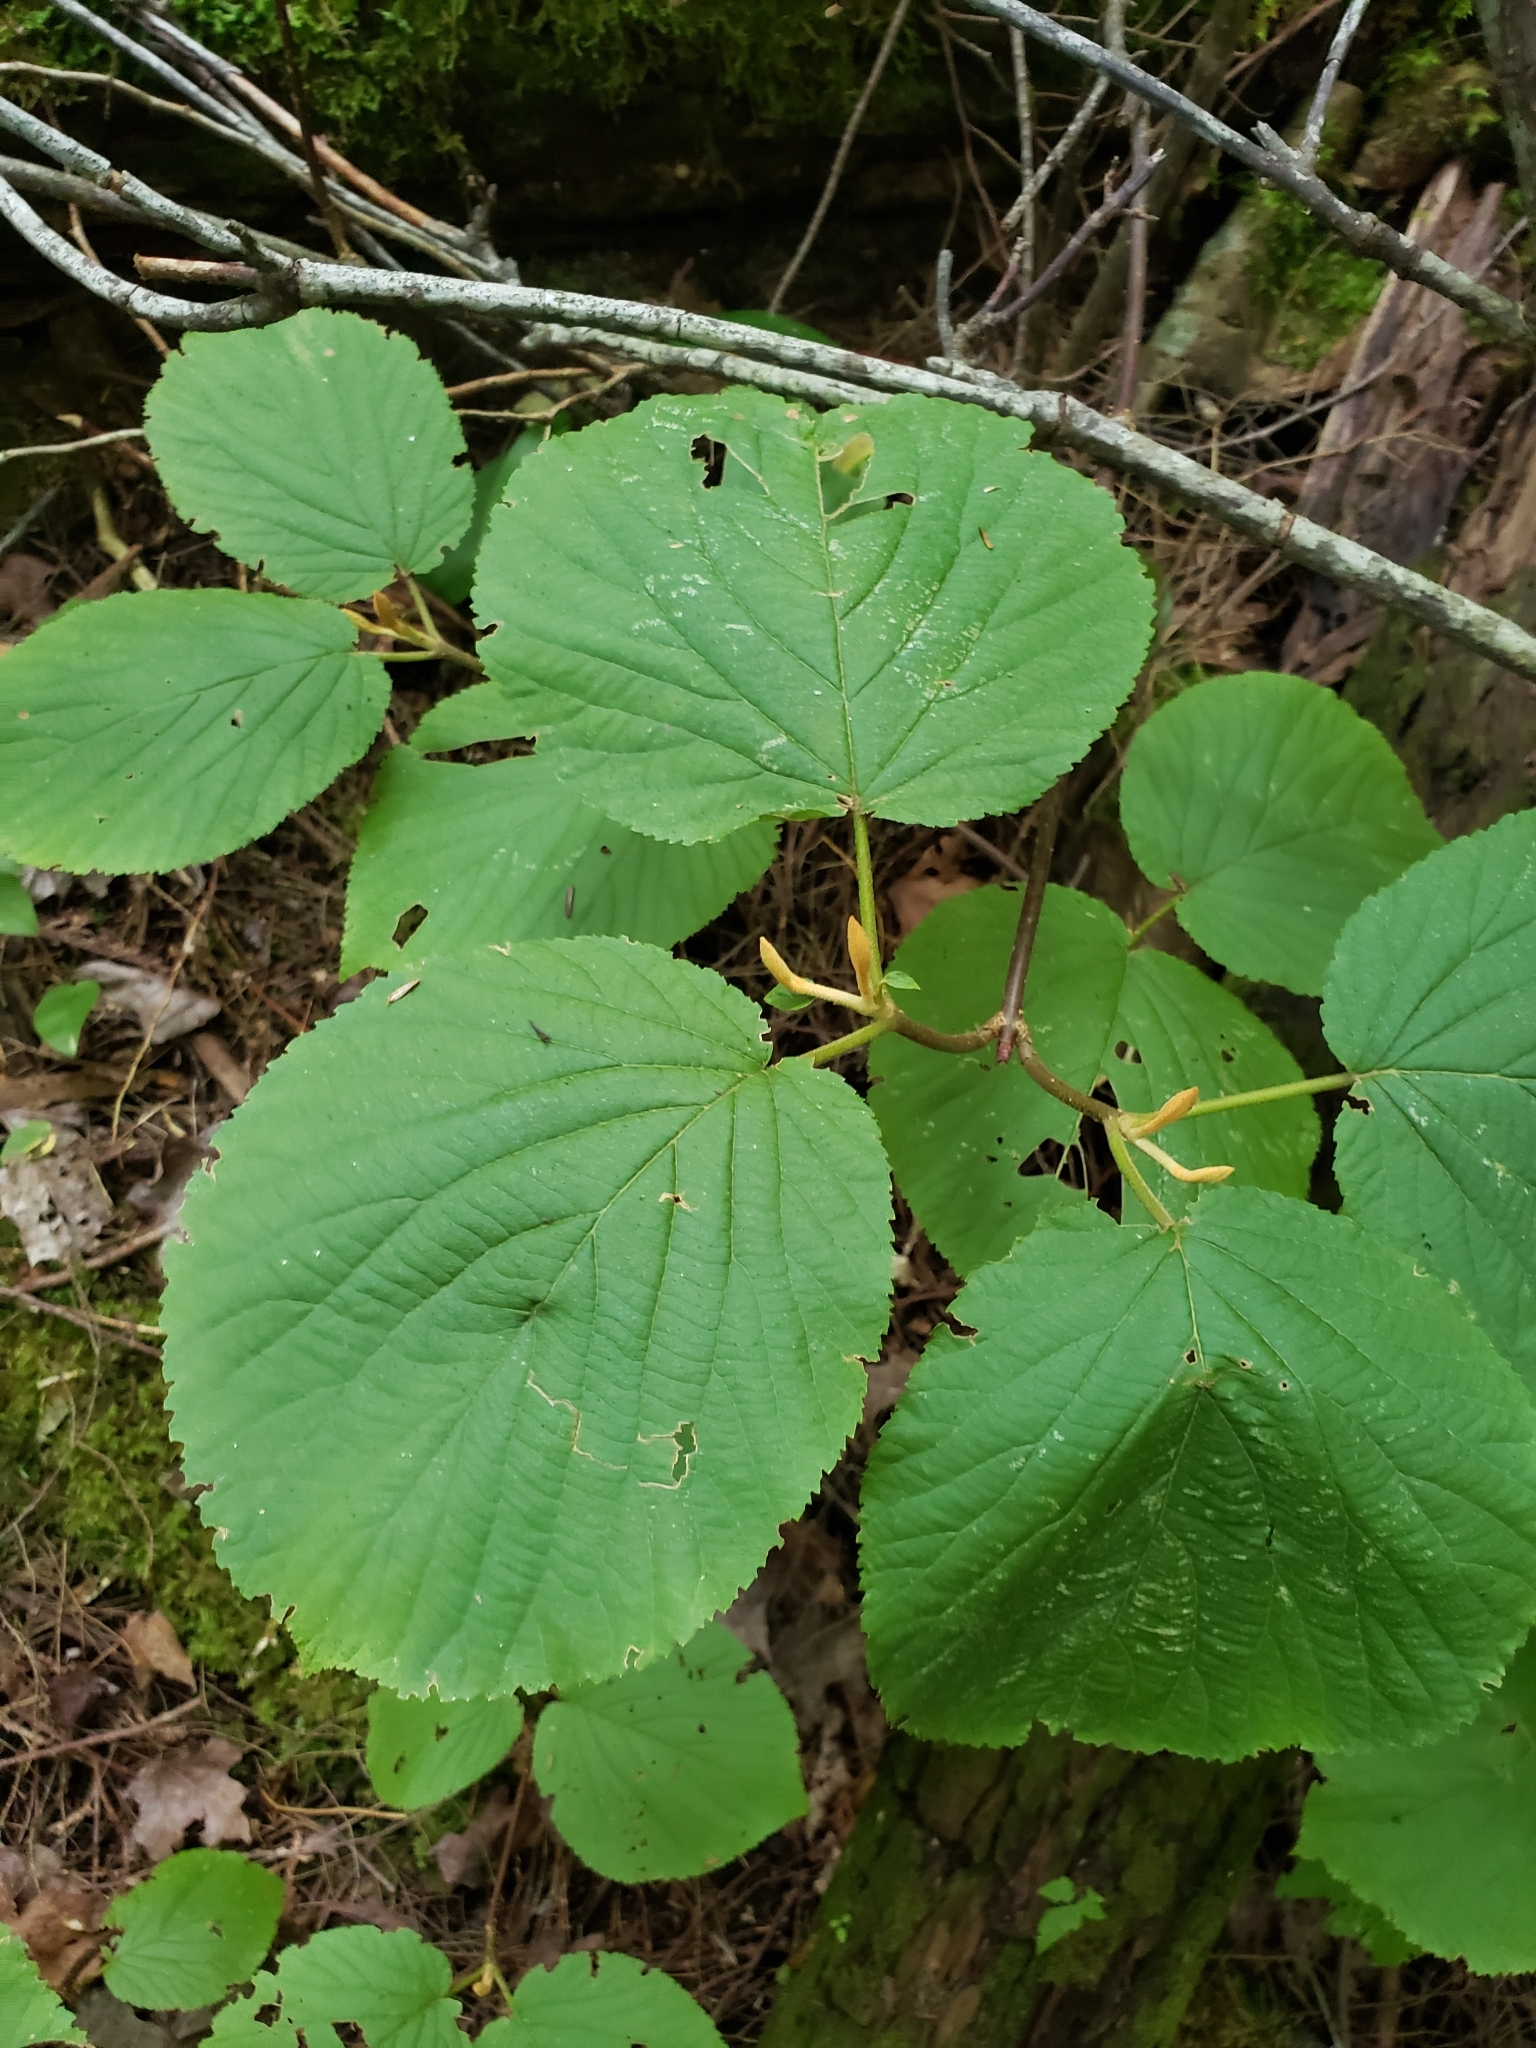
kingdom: Plantae
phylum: Tracheophyta
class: Magnoliopsida
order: Dipsacales
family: Viburnaceae
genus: Viburnum
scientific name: Viburnum lantanoides
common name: Hobblebush
